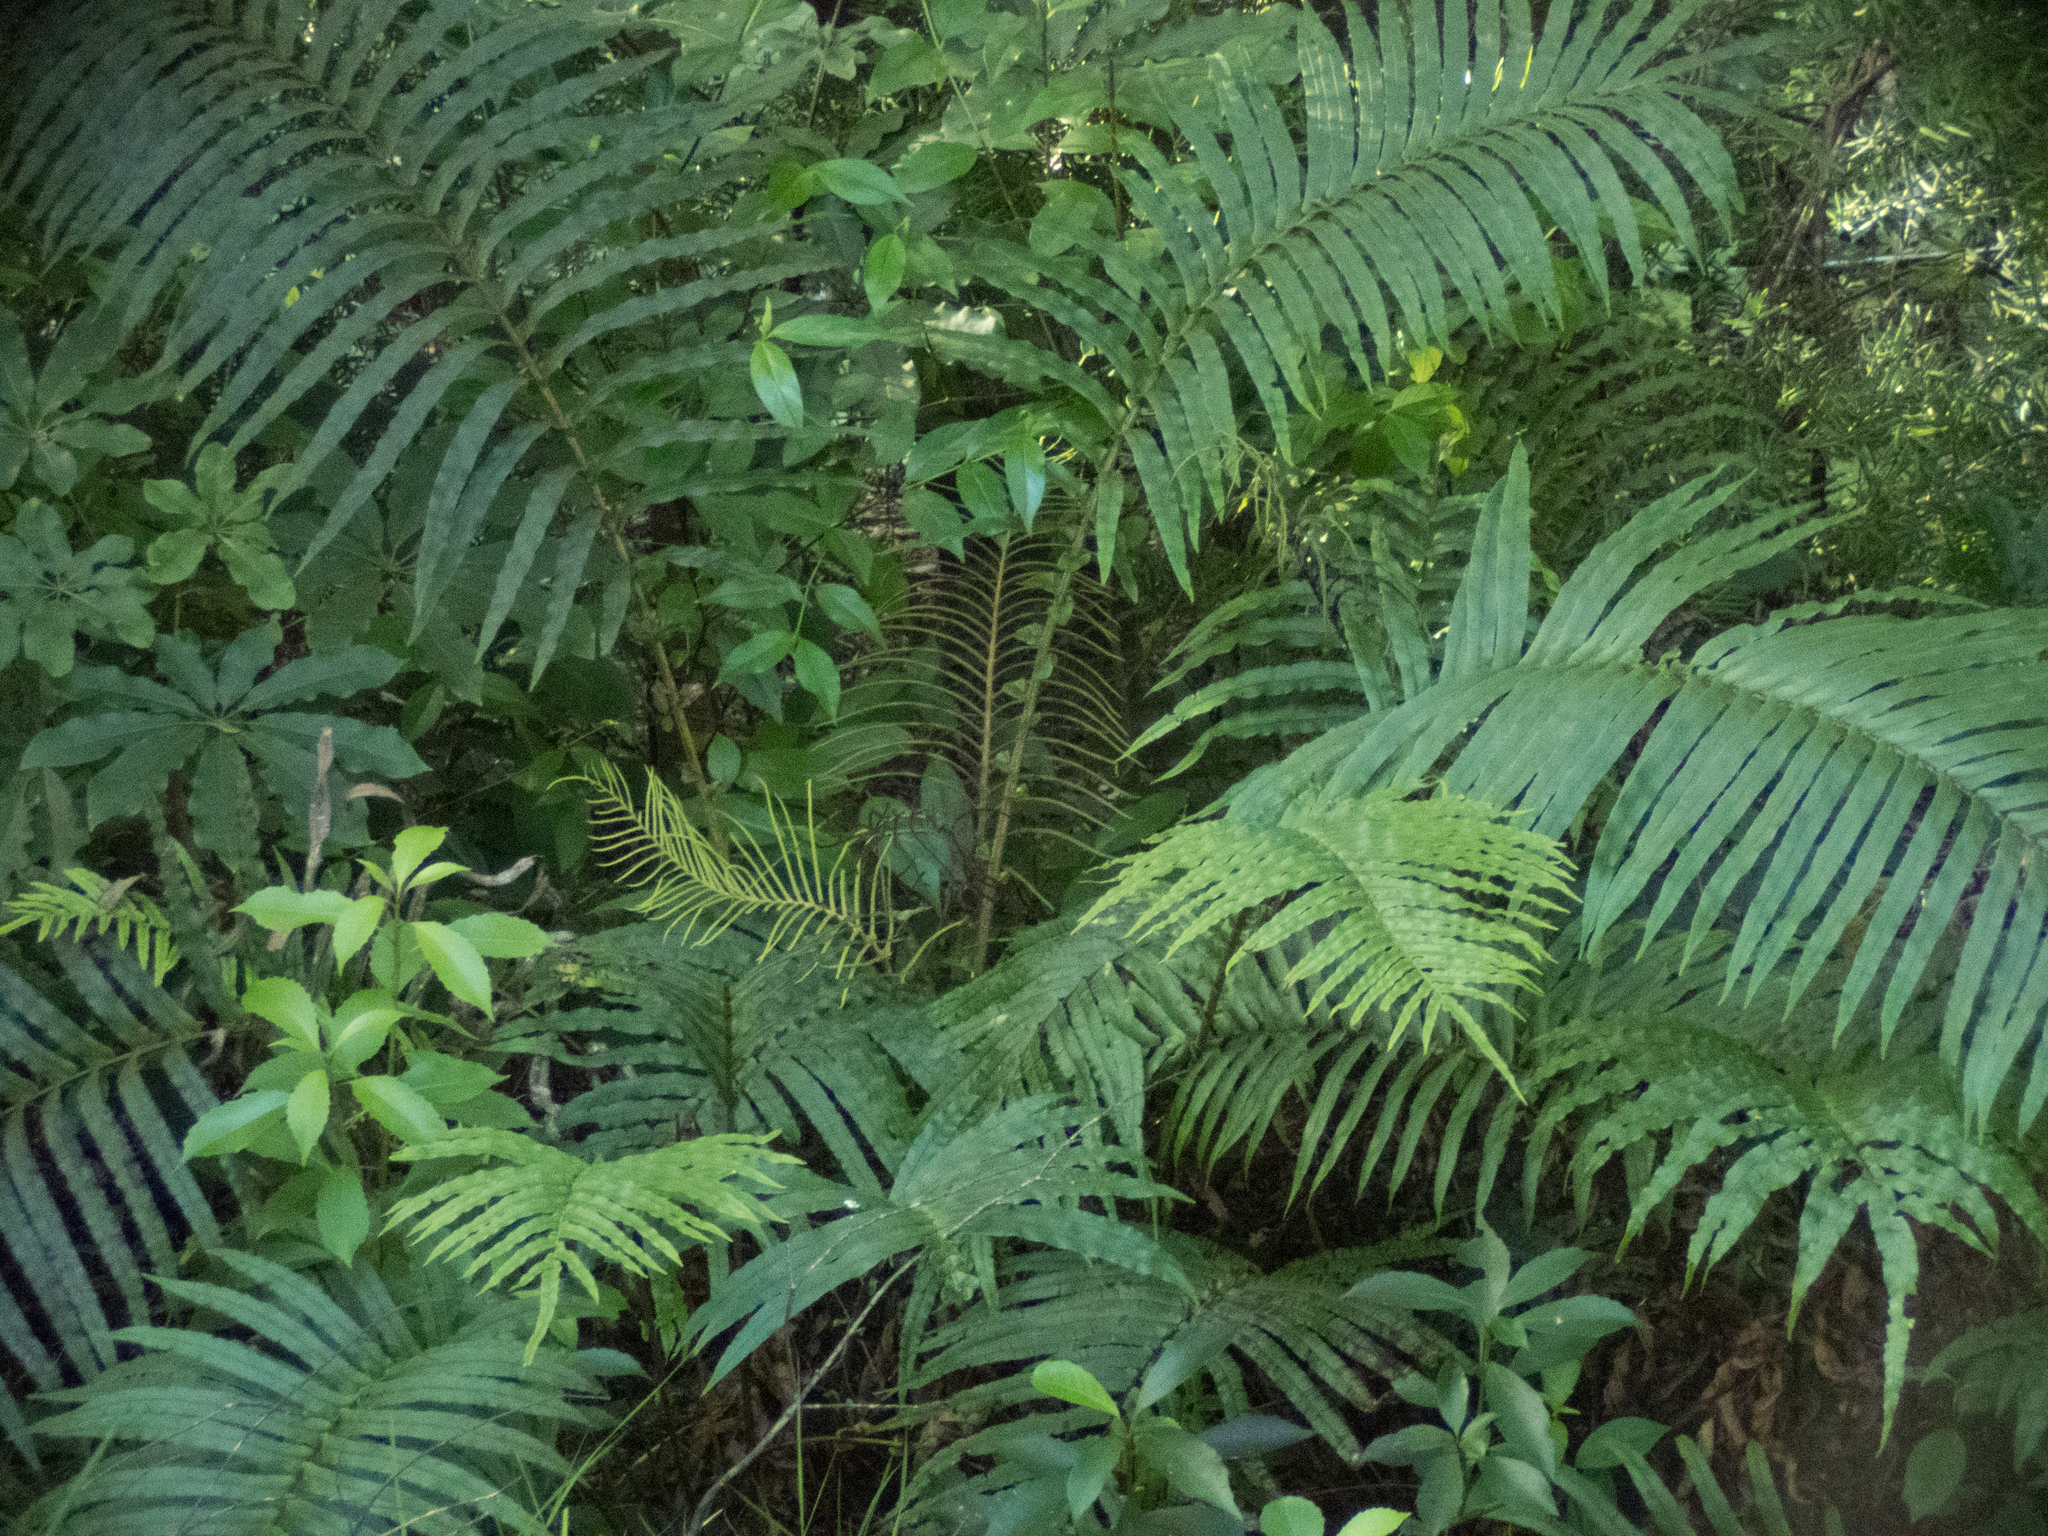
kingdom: Plantae
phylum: Tracheophyta
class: Polypodiopsida
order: Polypodiales
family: Blechnaceae
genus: Parablechnum
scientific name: Parablechnum novae-zelandiae
